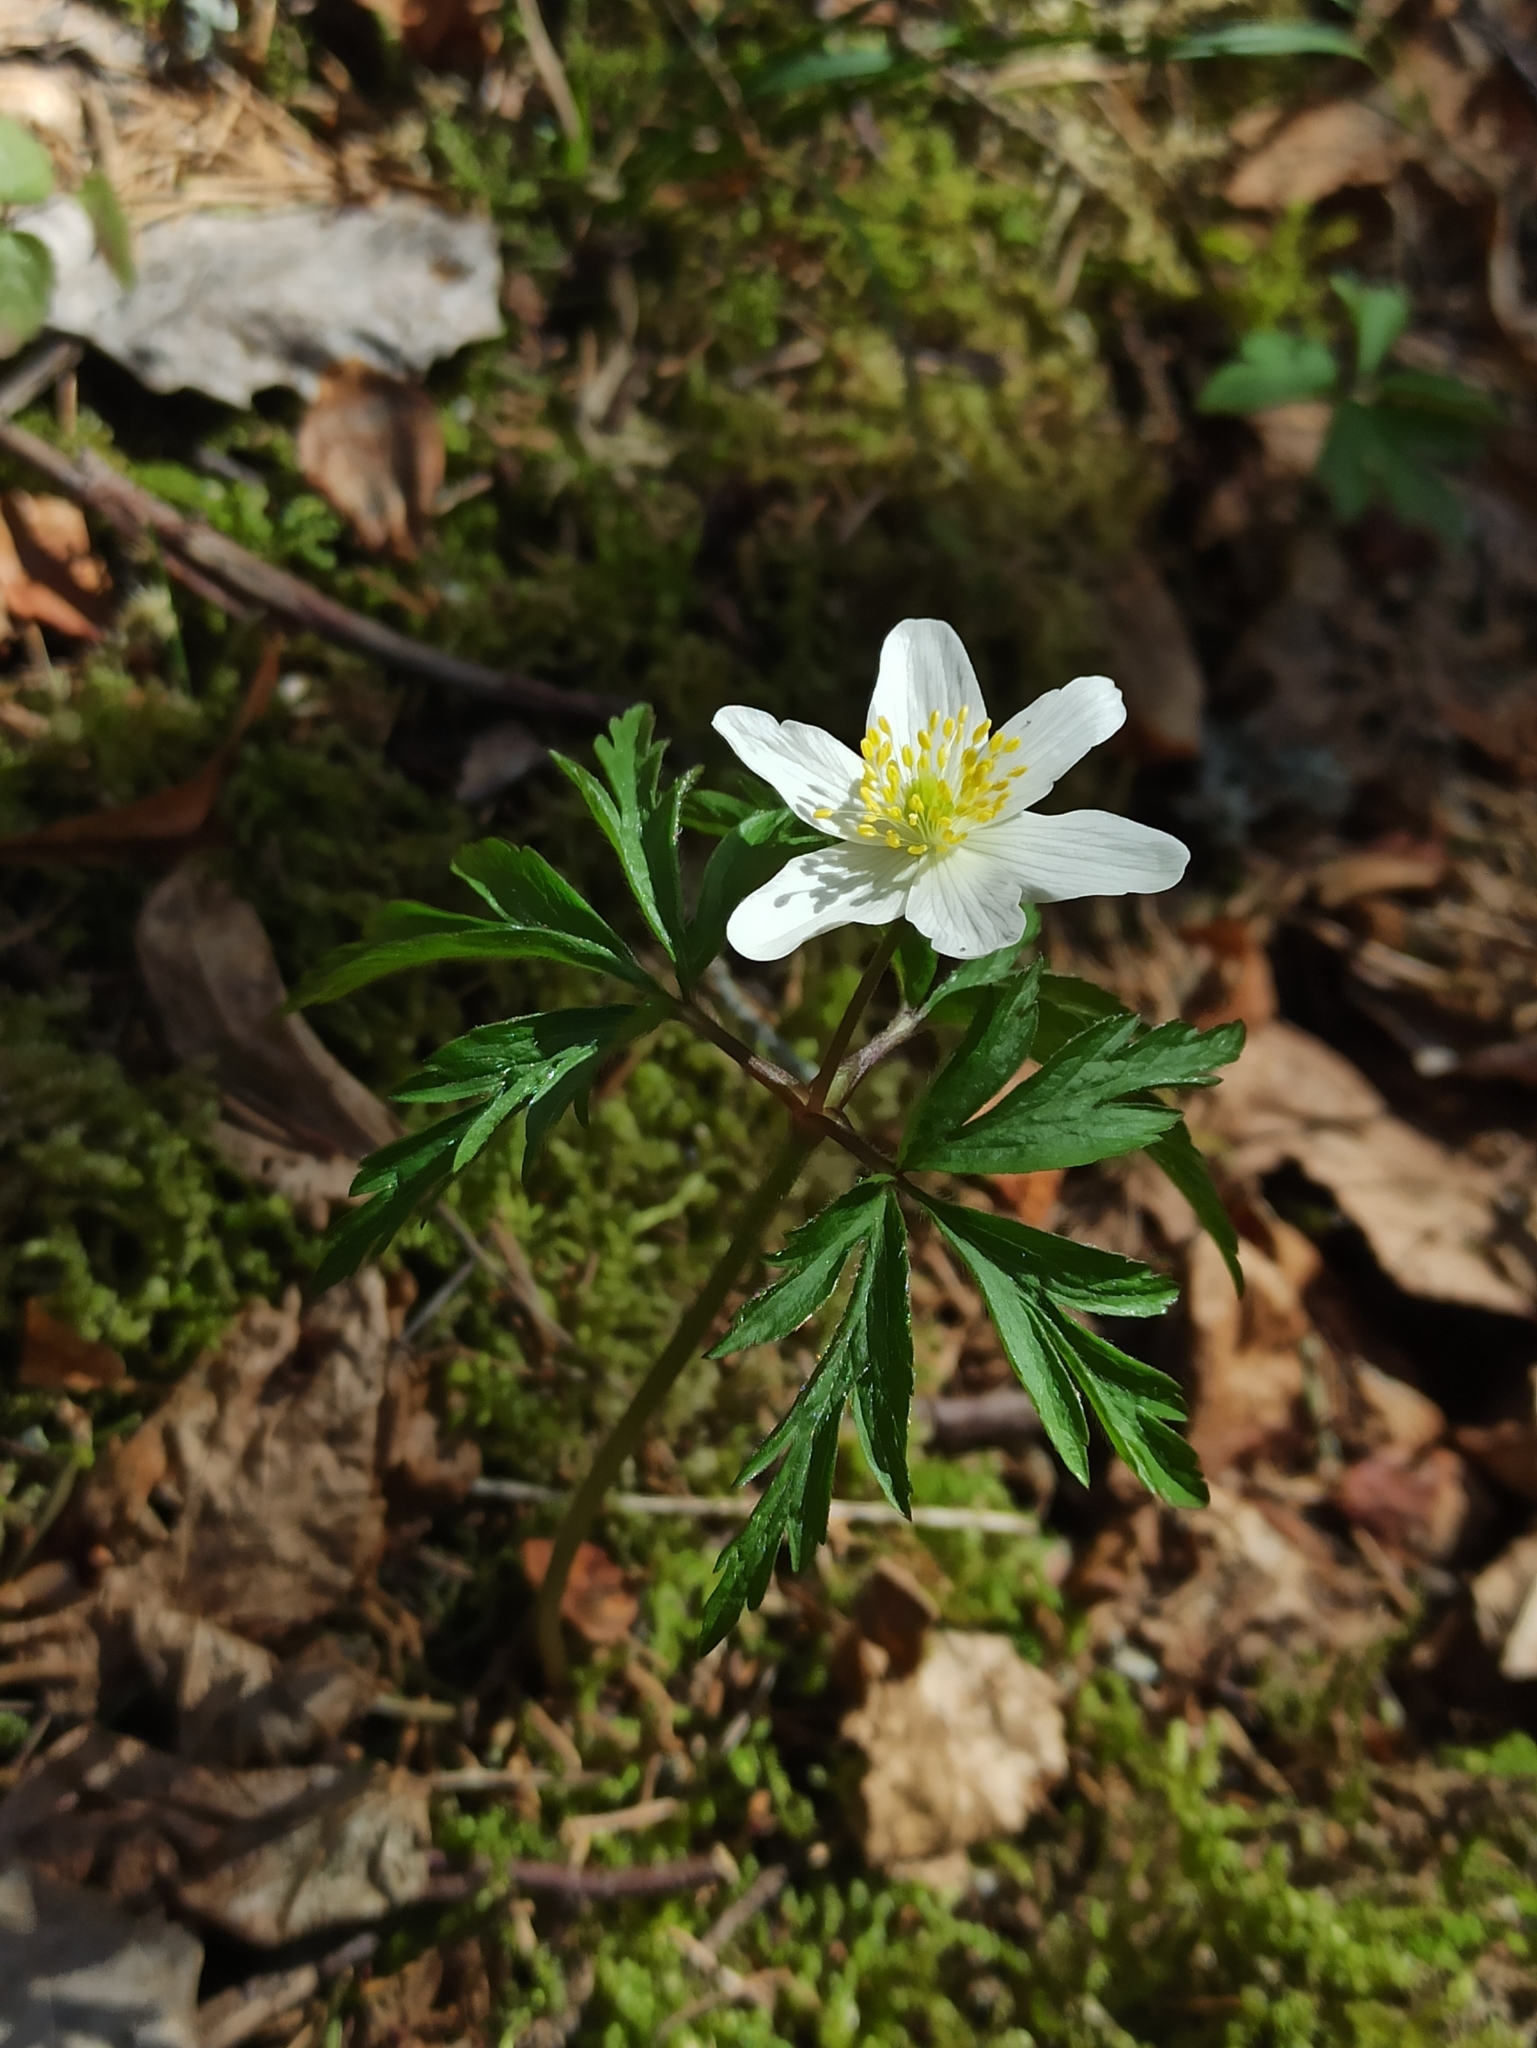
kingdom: Plantae
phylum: Tracheophyta
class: Magnoliopsida
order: Ranunculales
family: Ranunculaceae
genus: Anemone
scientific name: Anemone nemorosa
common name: Wood anemone
